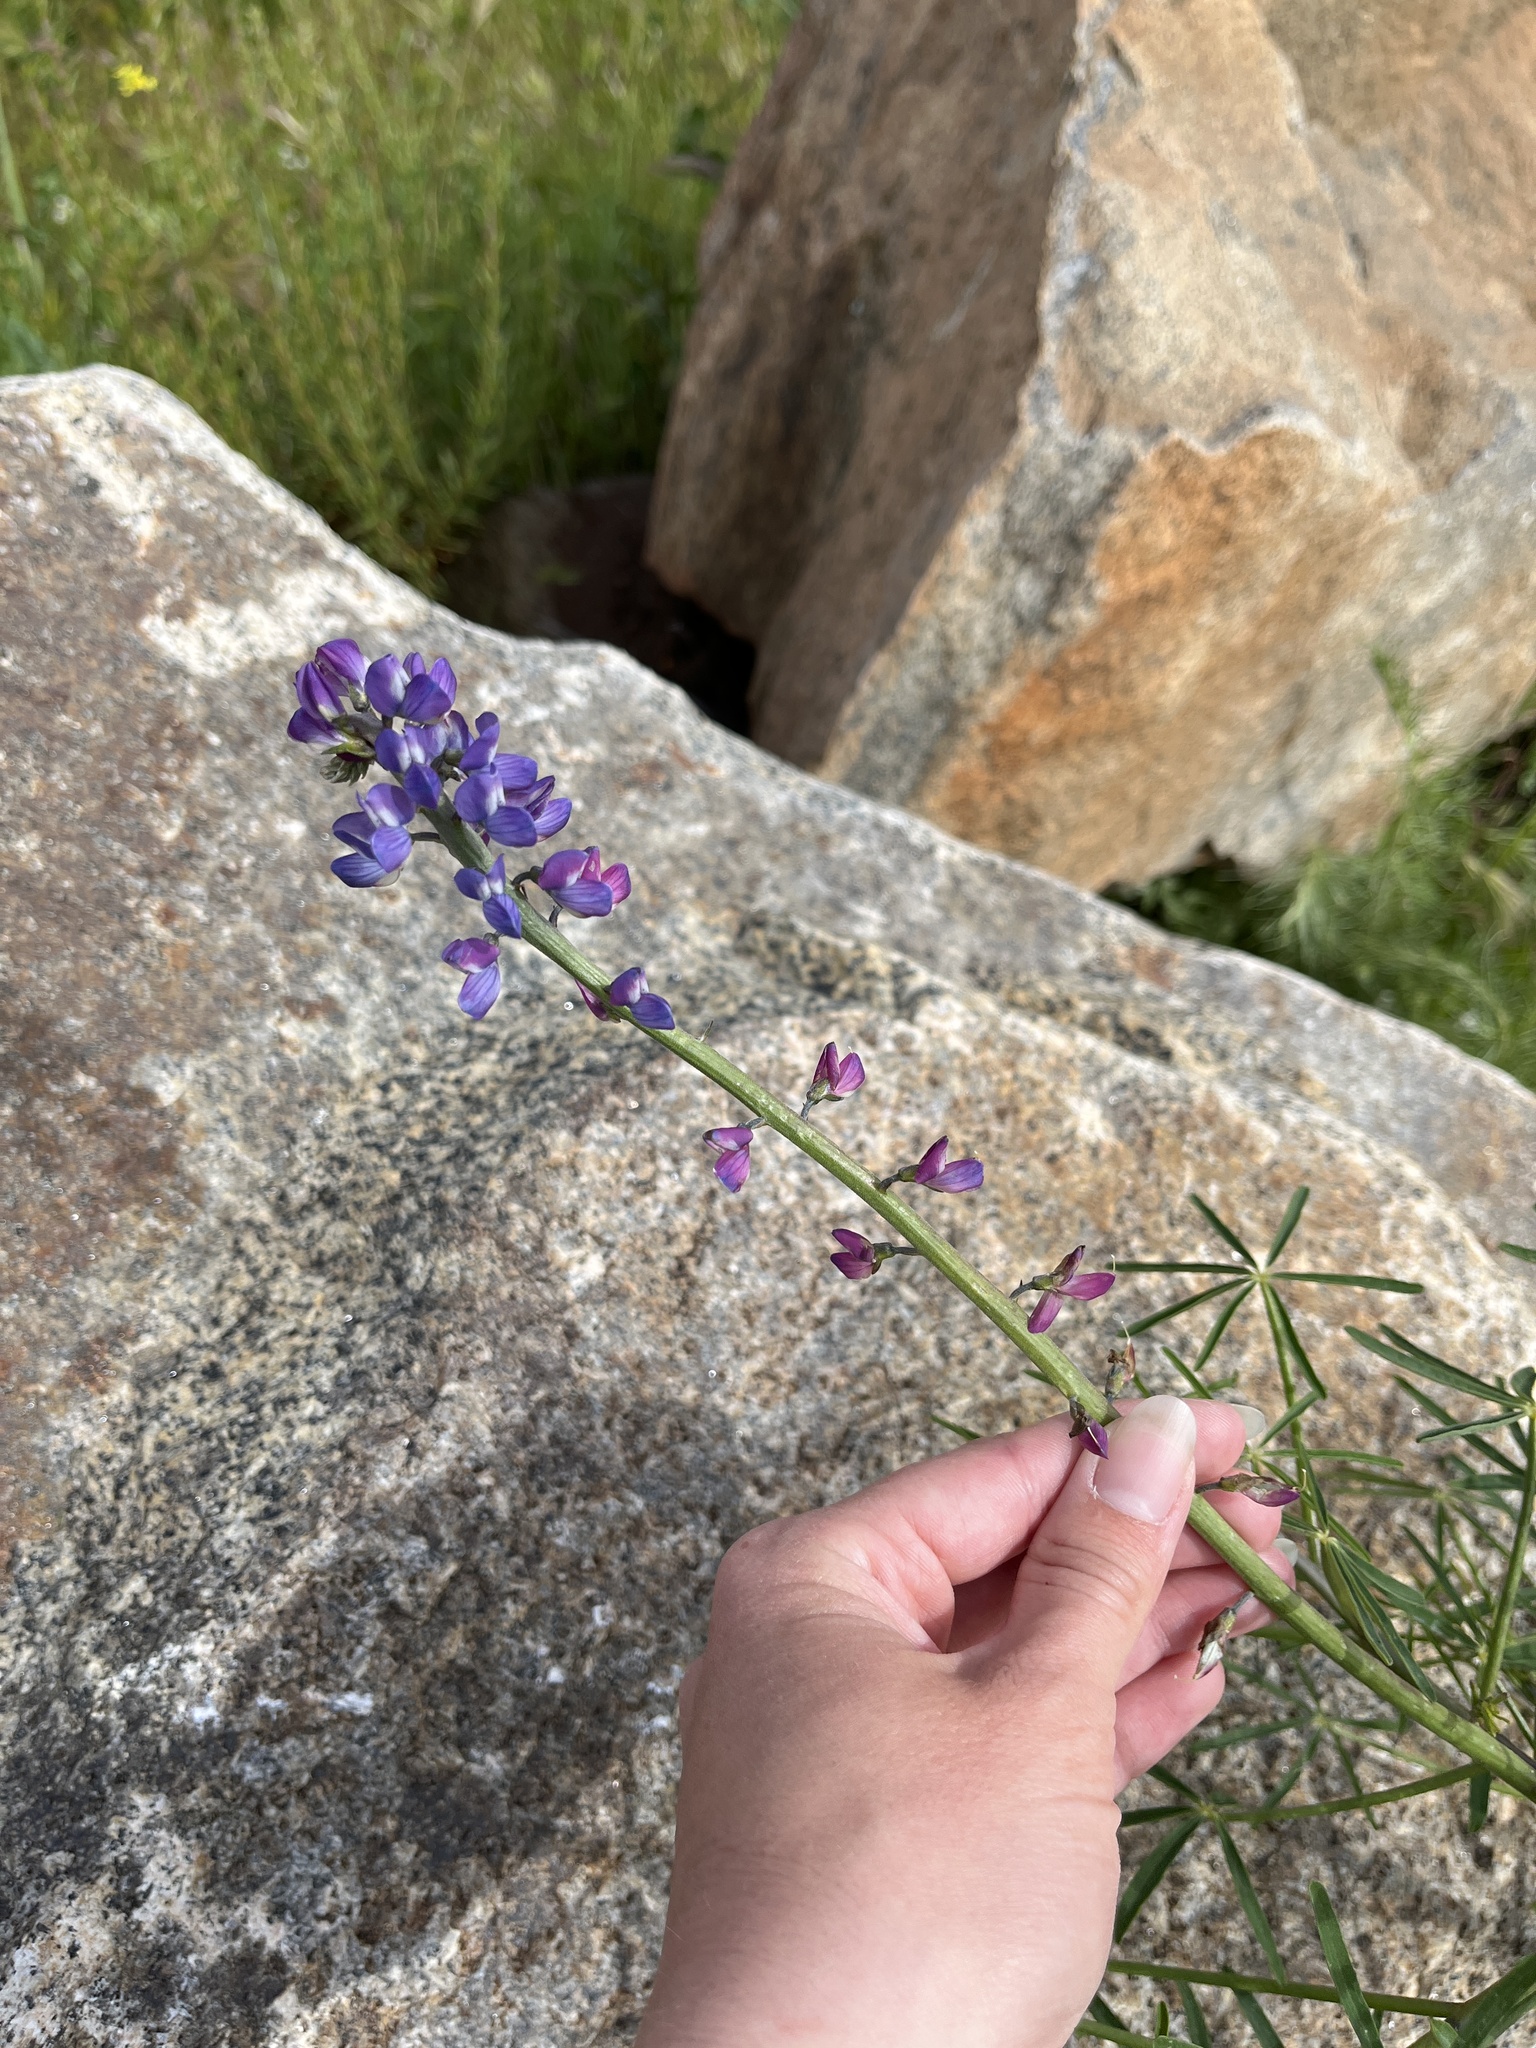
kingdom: Plantae
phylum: Tracheophyta
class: Magnoliopsida
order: Fabales
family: Fabaceae
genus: Lupinus
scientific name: Lupinus truncatus
